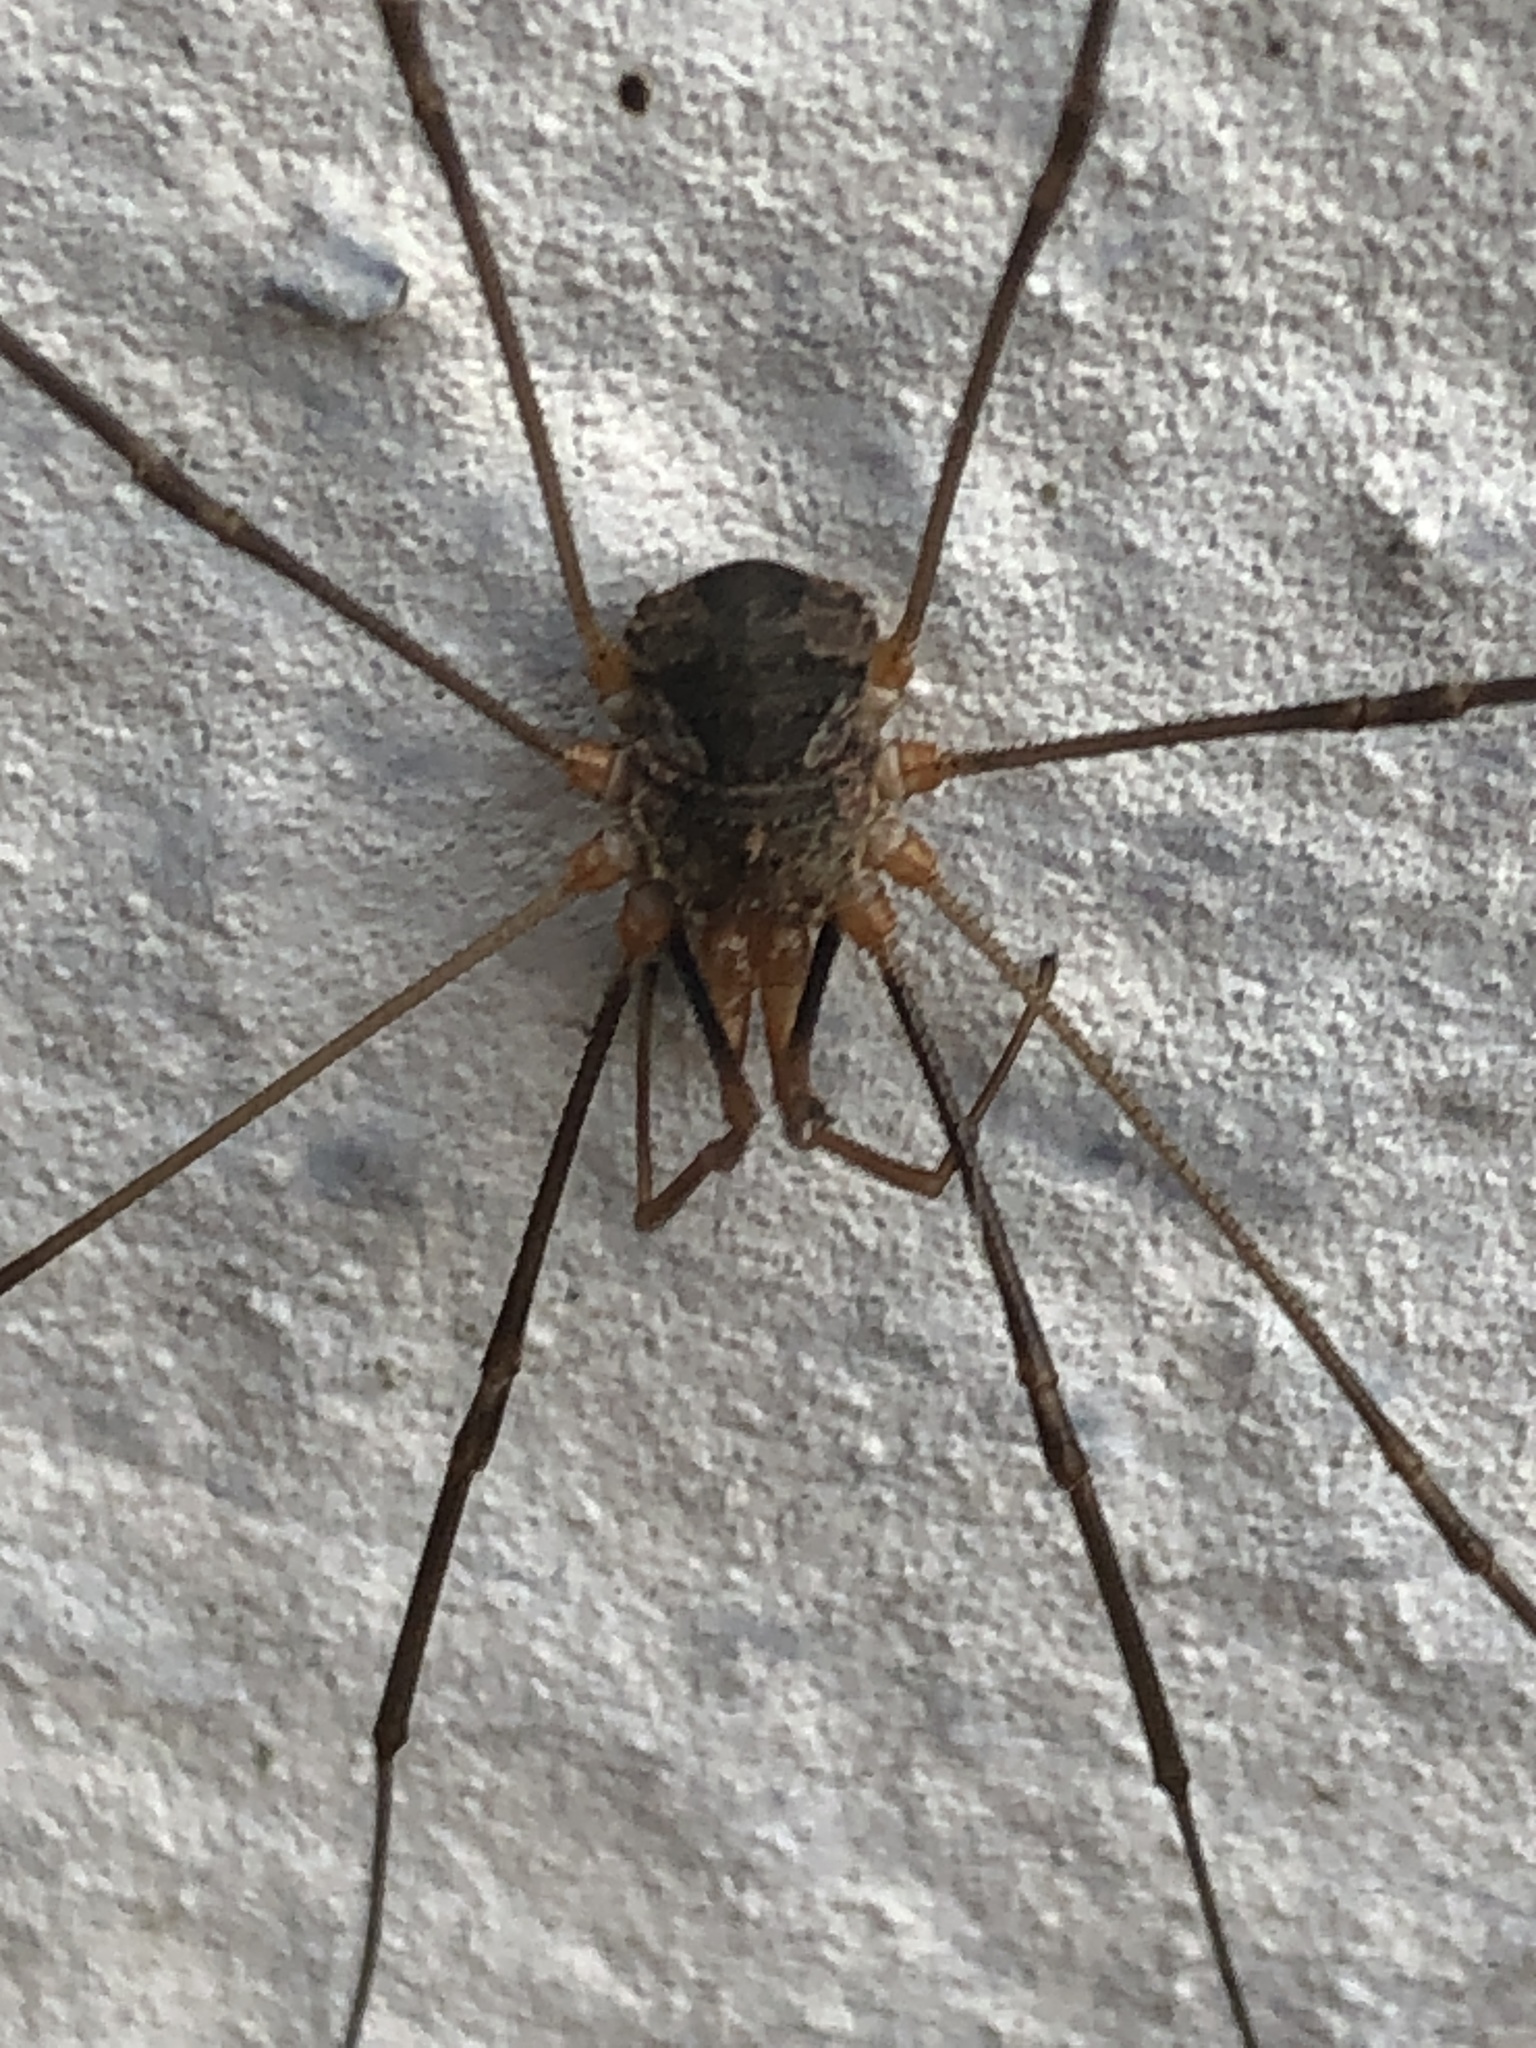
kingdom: Animalia
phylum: Arthropoda
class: Arachnida
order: Opiliones
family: Phalangiidae
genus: Phalangium
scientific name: Phalangium opilio
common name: Daddy longleg
